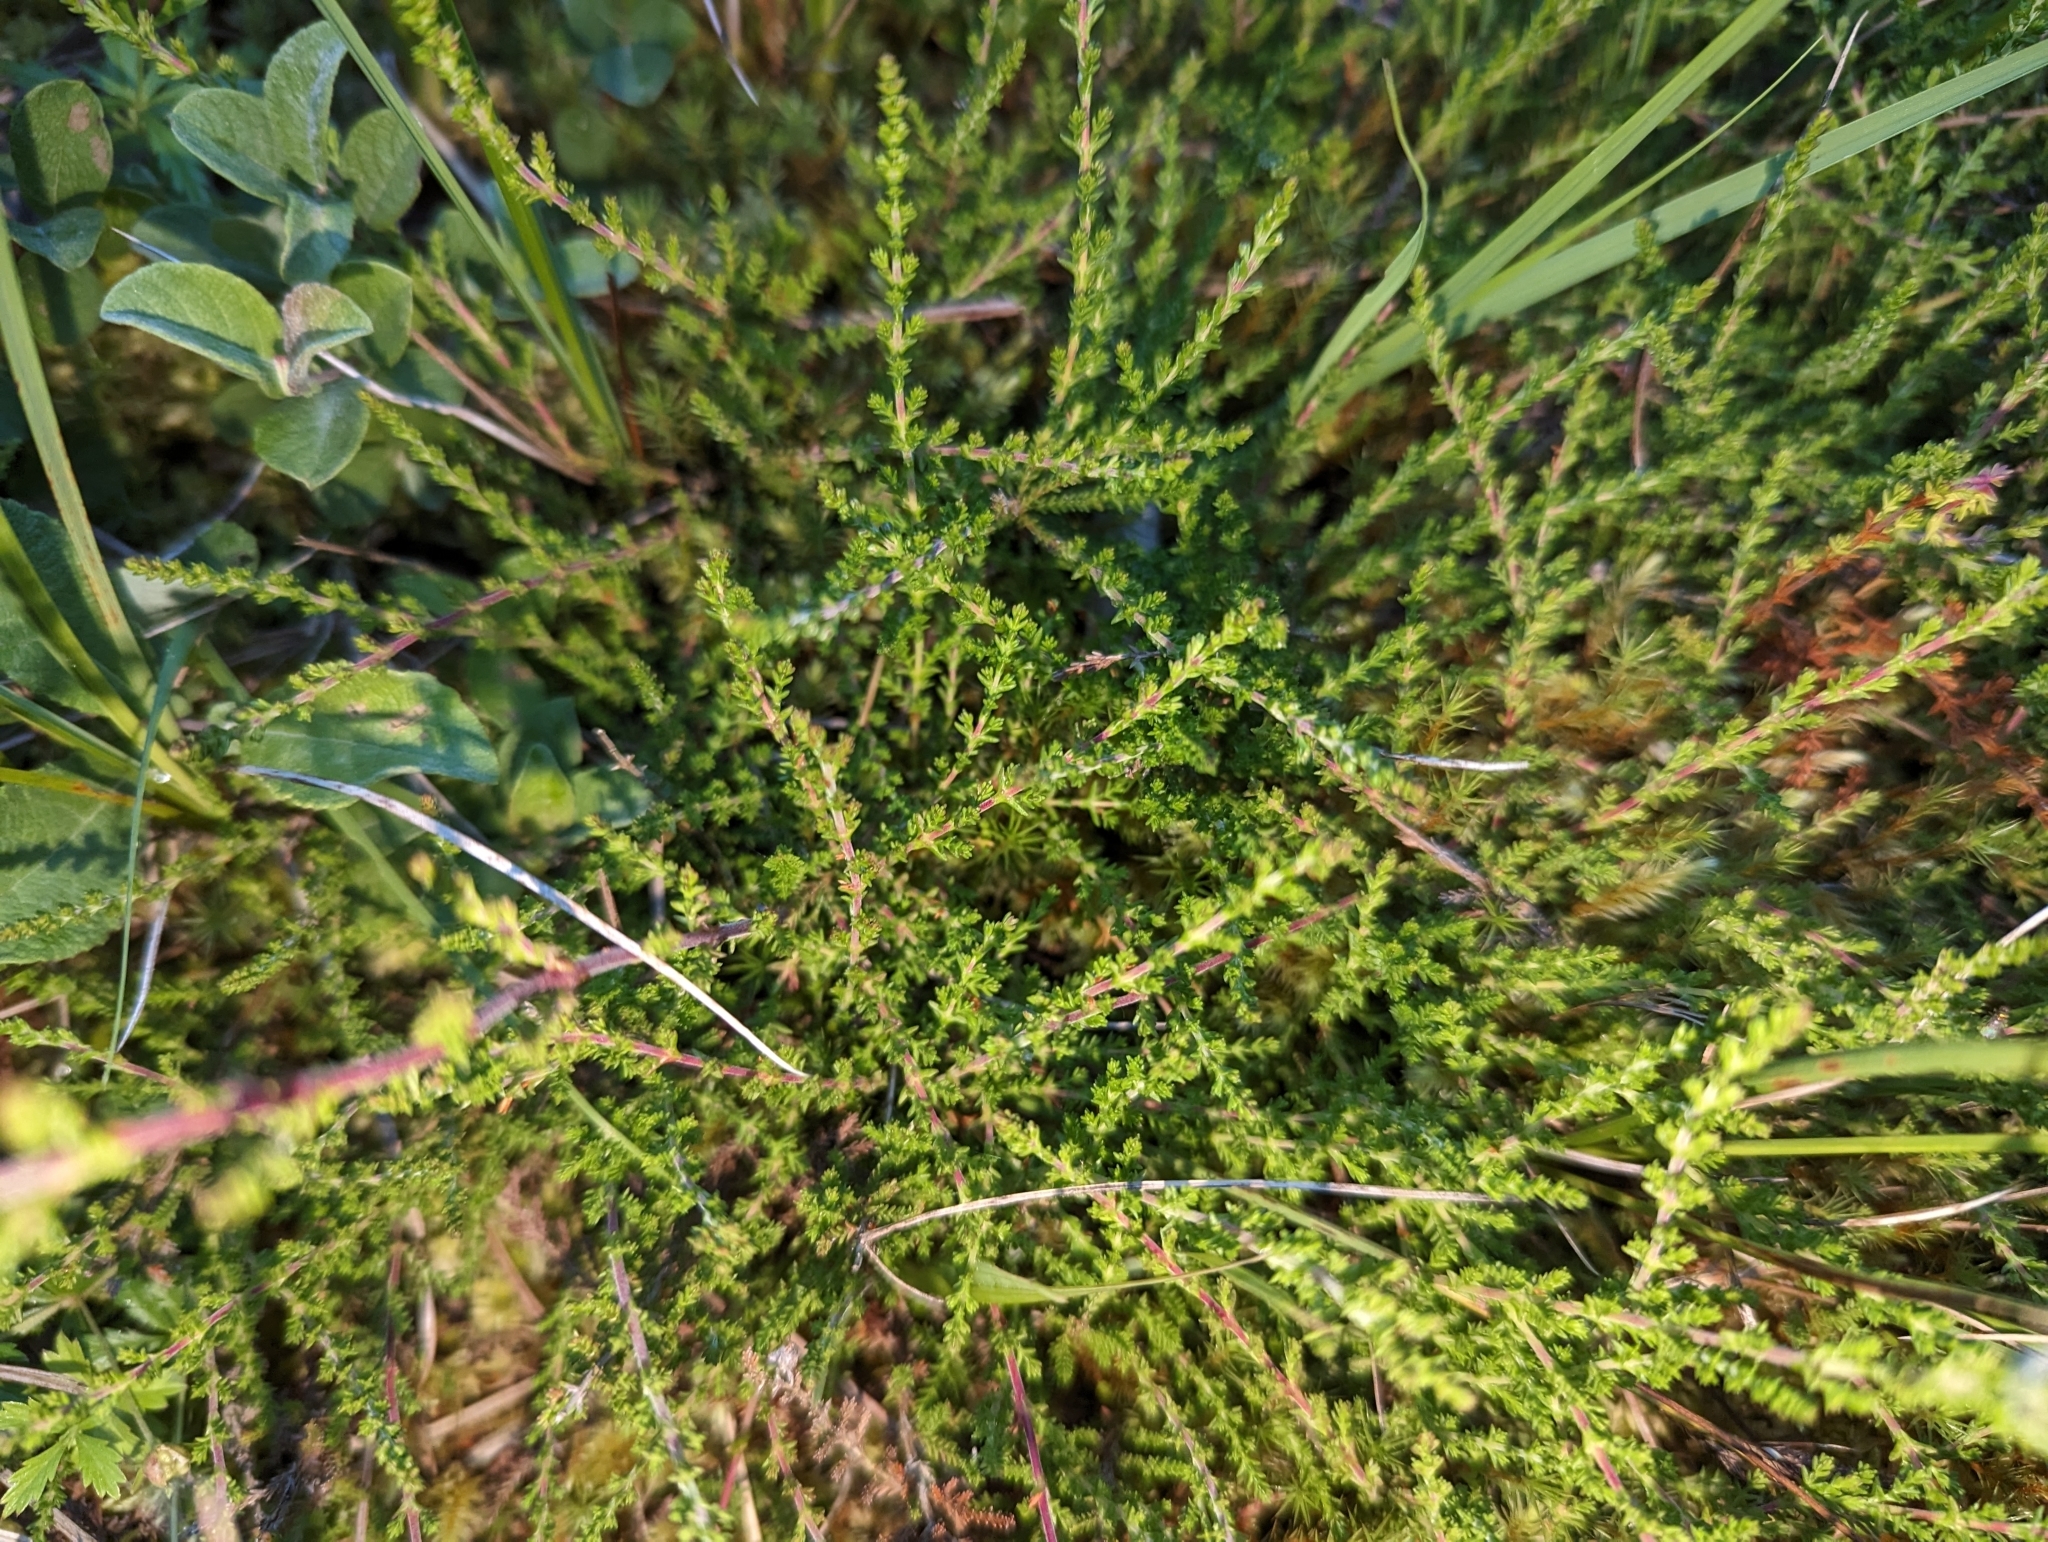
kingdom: Plantae
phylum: Tracheophyta
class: Magnoliopsida
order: Ericales
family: Ericaceae
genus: Calluna
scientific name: Calluna vulgaris
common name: Heather
